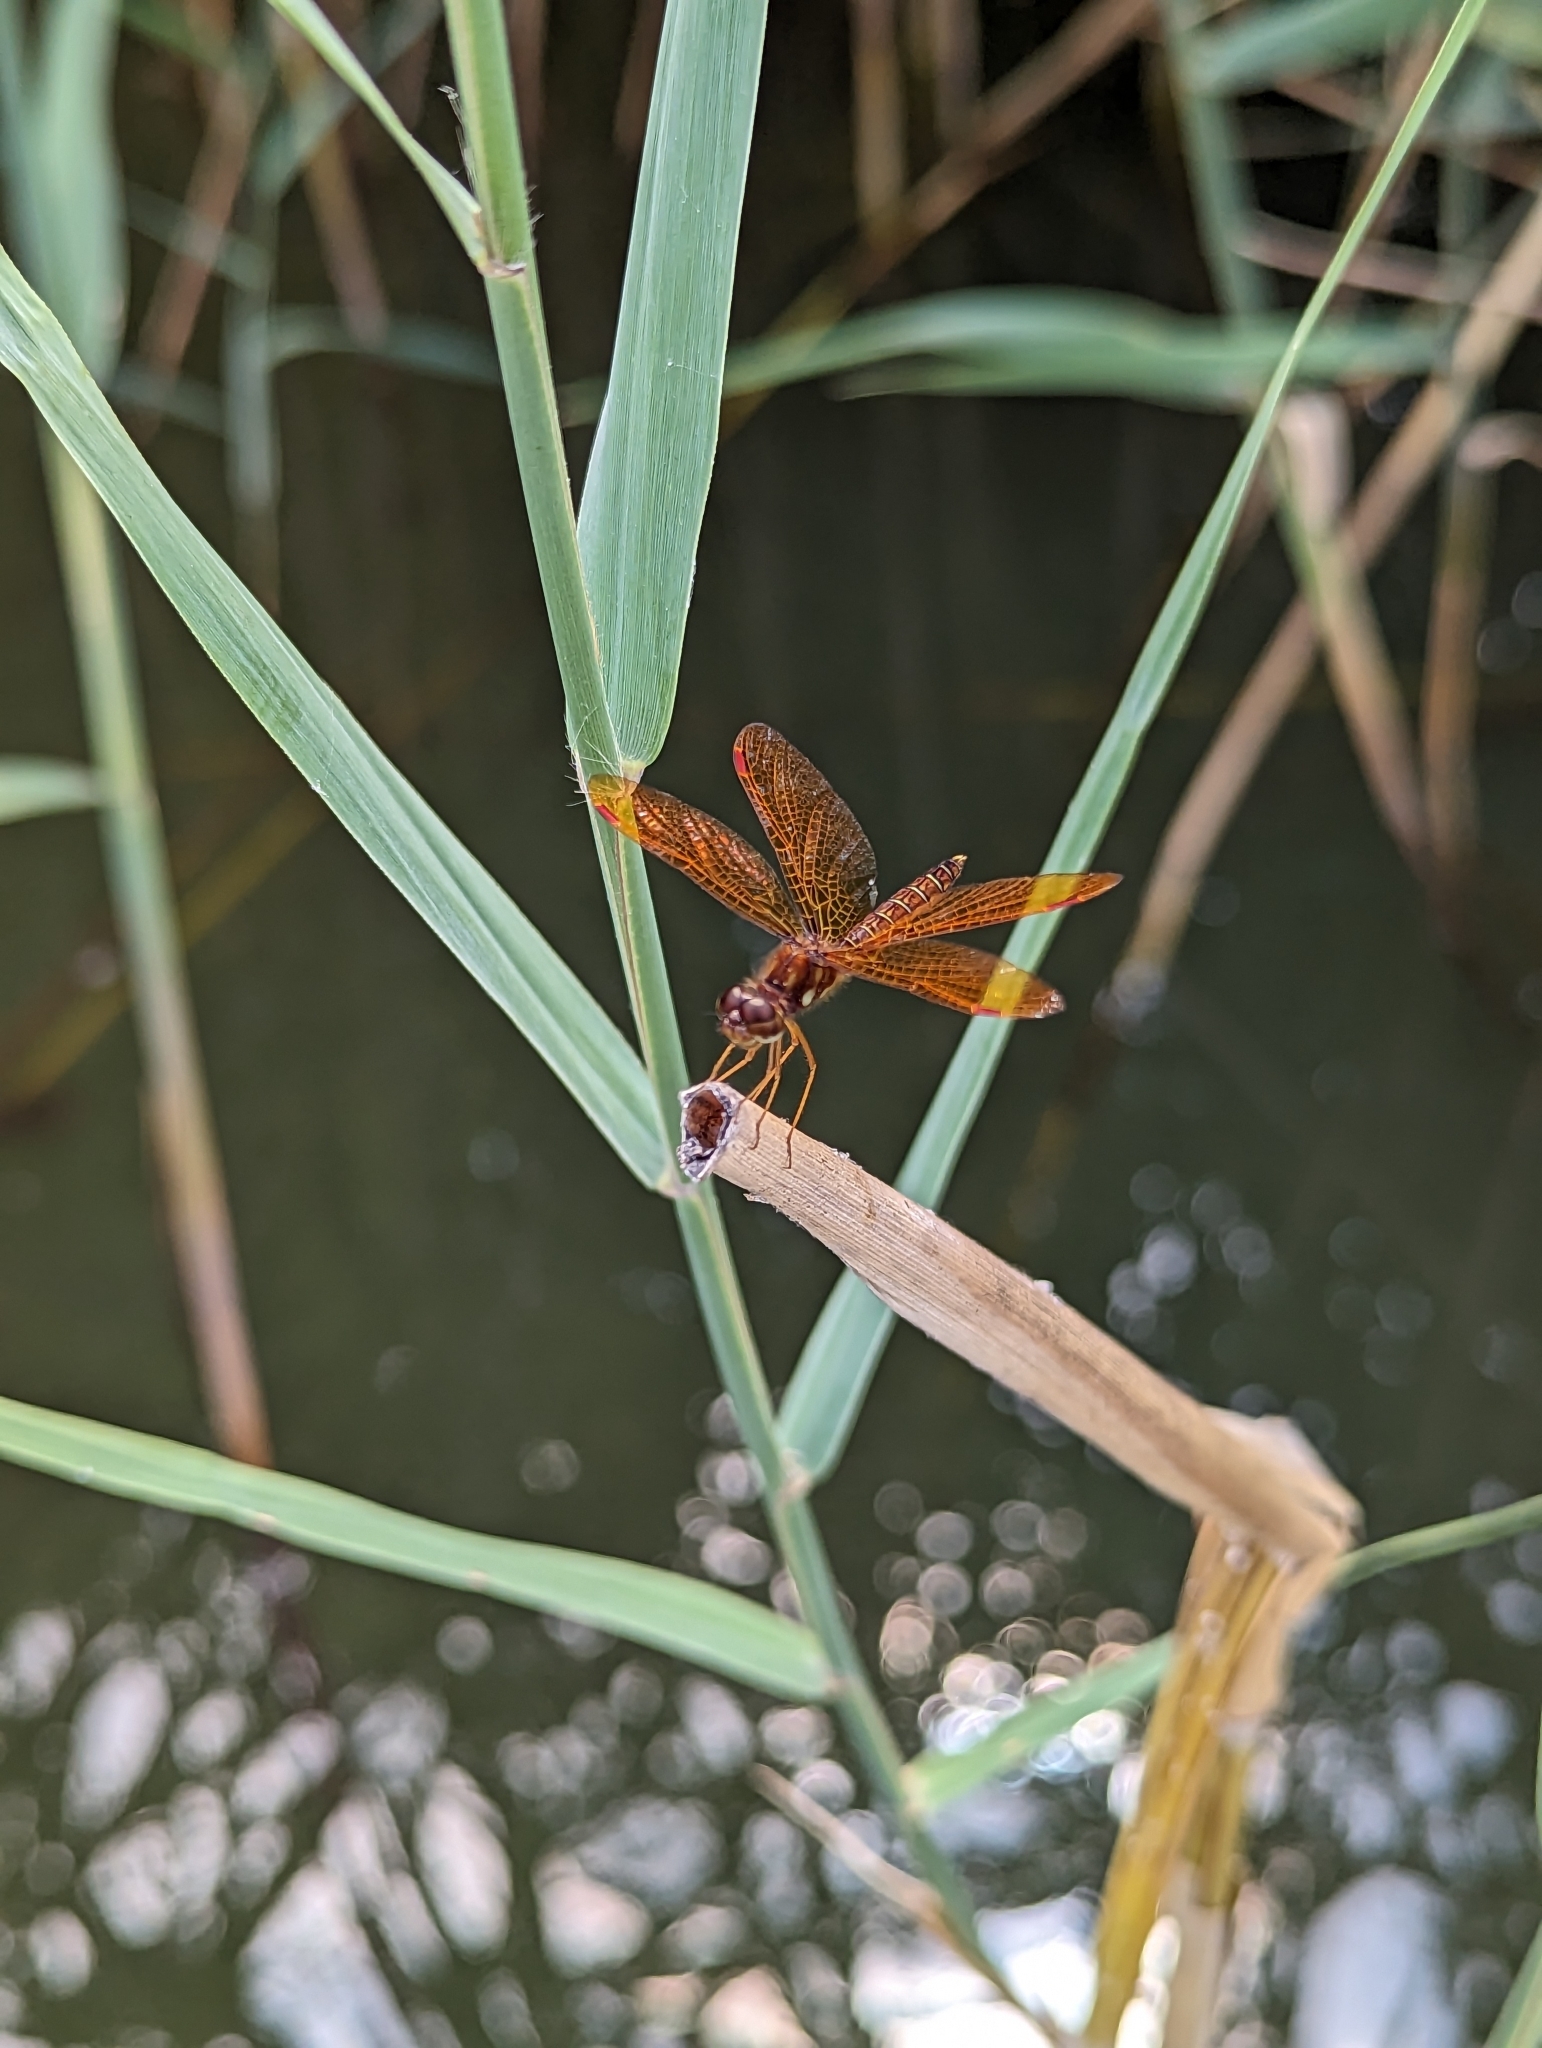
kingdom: Animalia
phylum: Arthropoda
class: Insecta
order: Odonata
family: Libellulidae
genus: Perithemis
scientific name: Perithemis tenera
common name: Eastern amberwing
